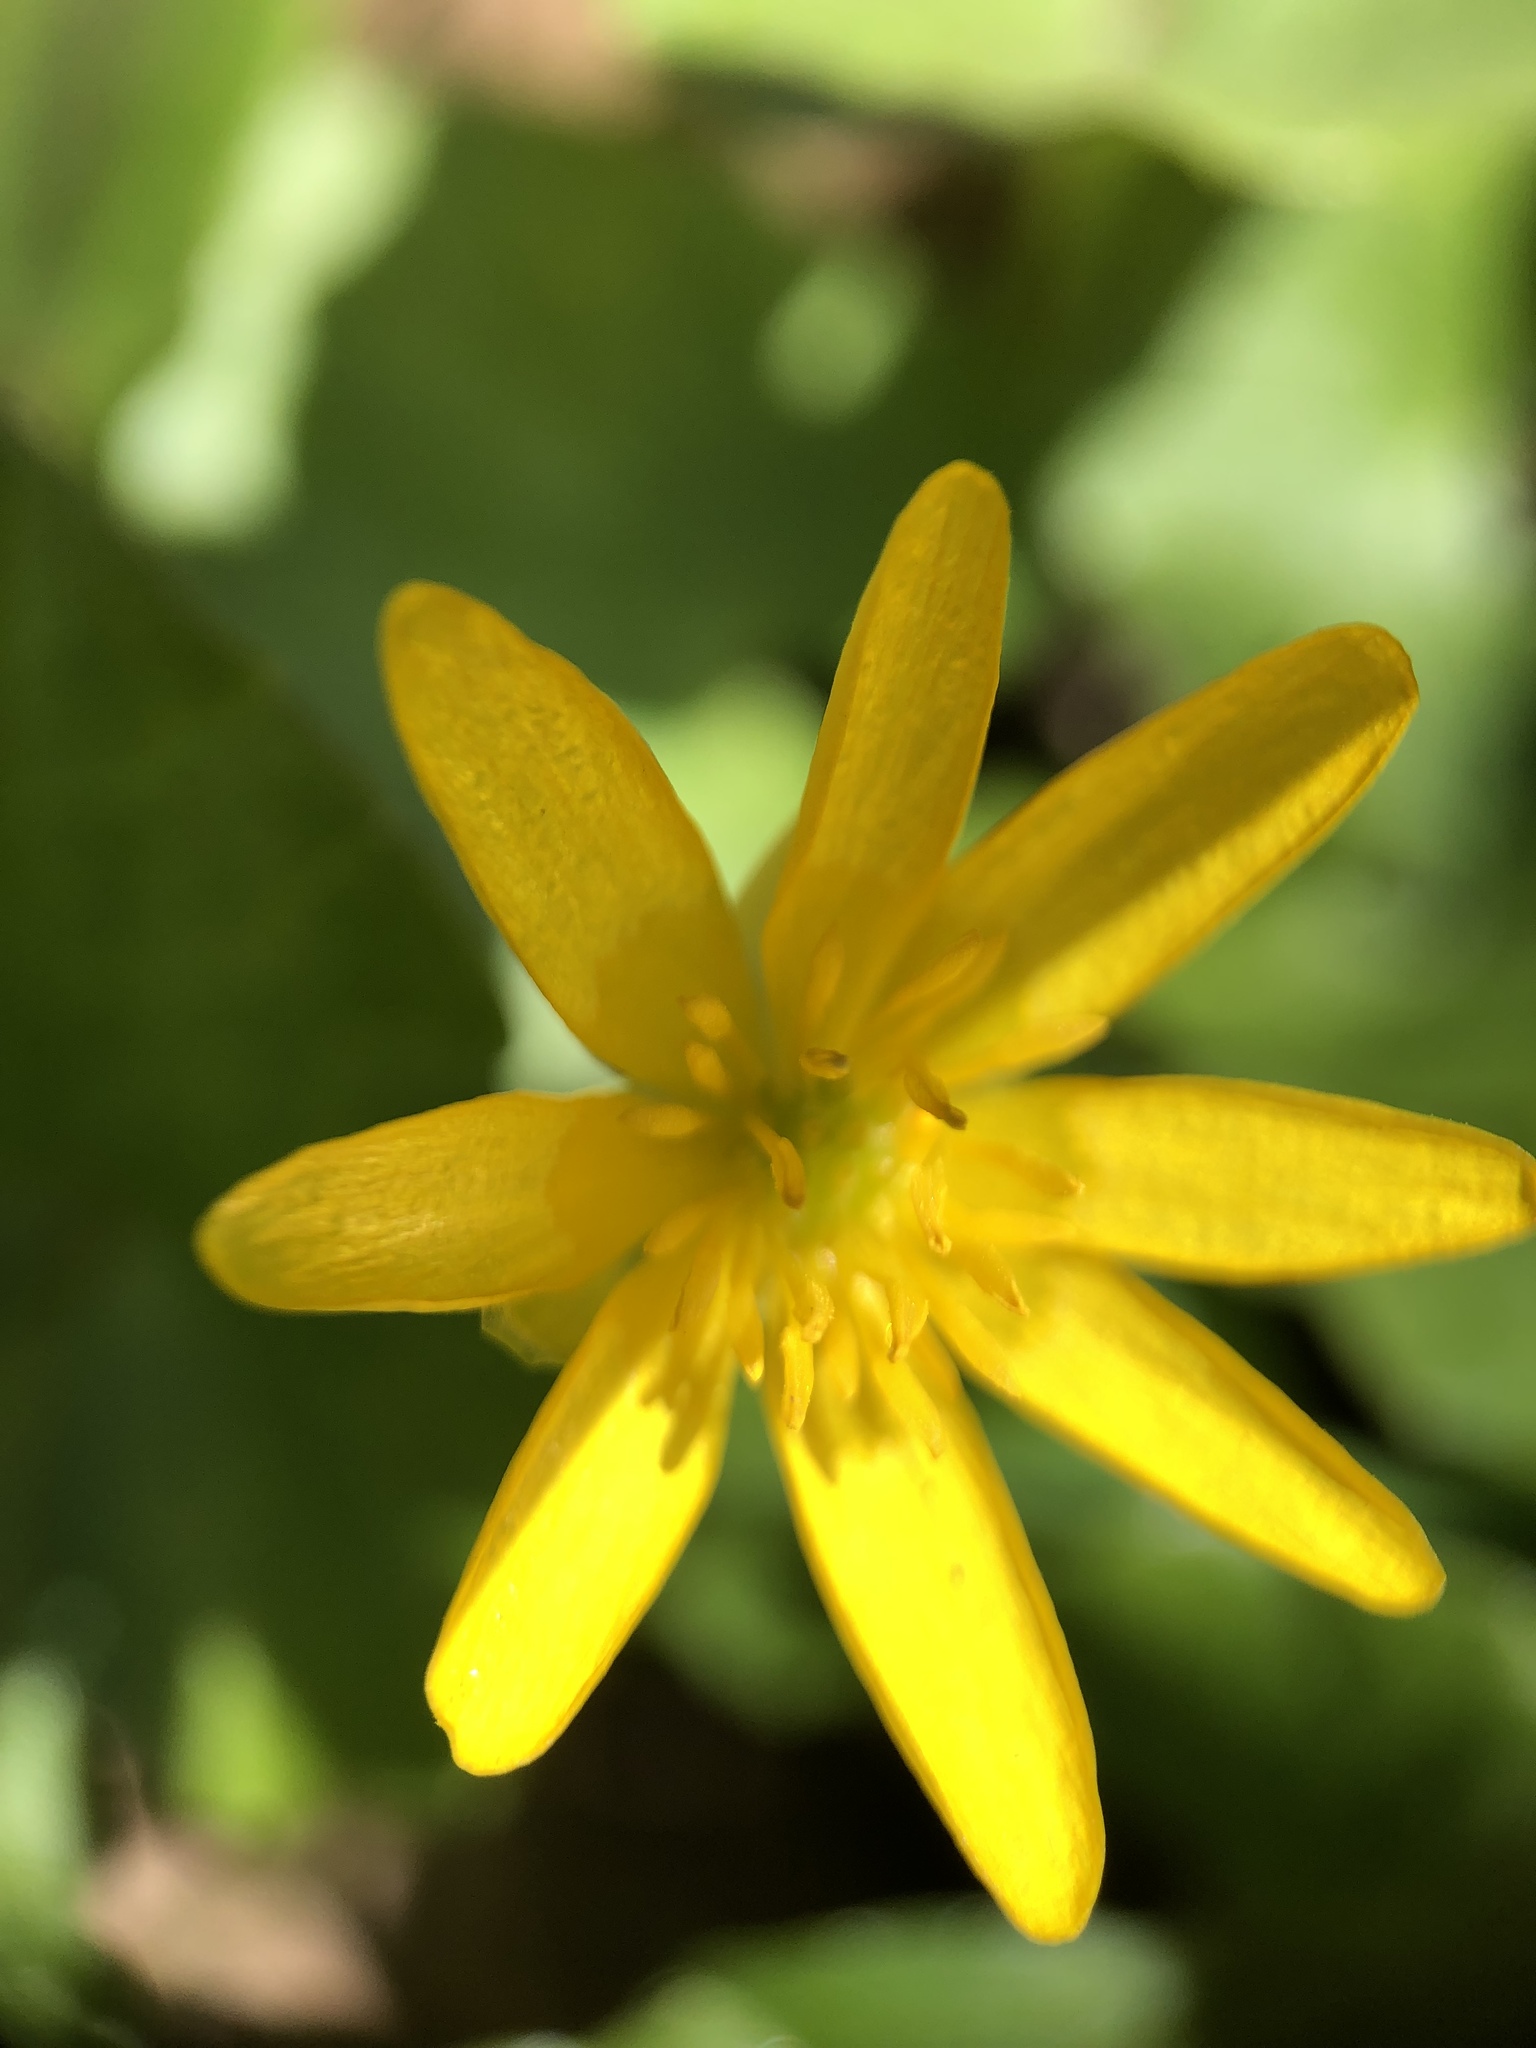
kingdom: Plantae
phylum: Tracheophyta
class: Magnoliopsida
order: Ranunculales
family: Ranunculaceae
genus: Ficaria
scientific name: Ficaria verna
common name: Lesser celandine
